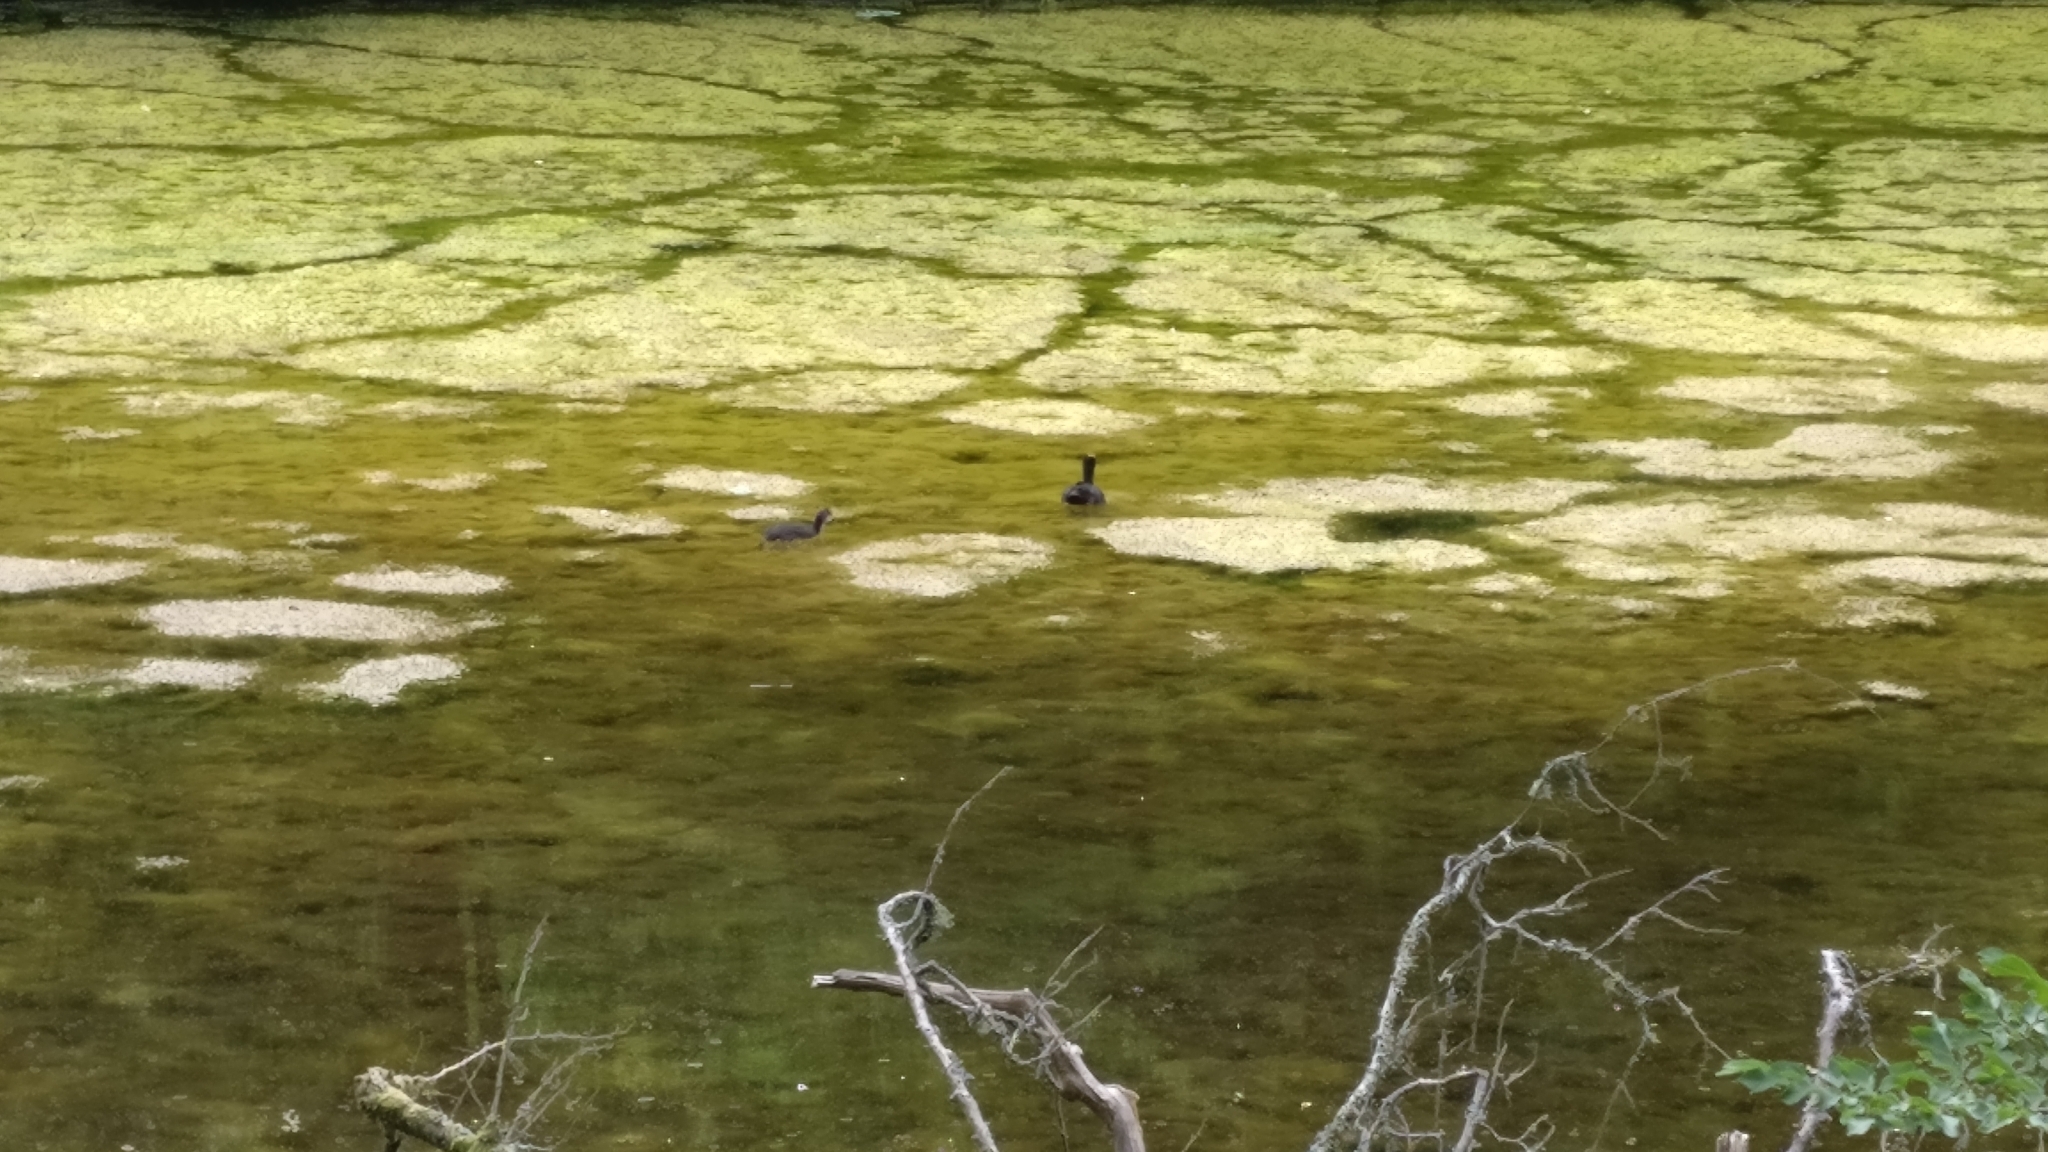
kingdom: Animalia
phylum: Chordata
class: Aves
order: Gruiformes
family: Rallidae
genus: Fulica
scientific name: Fulica atra
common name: Eurasian coot
